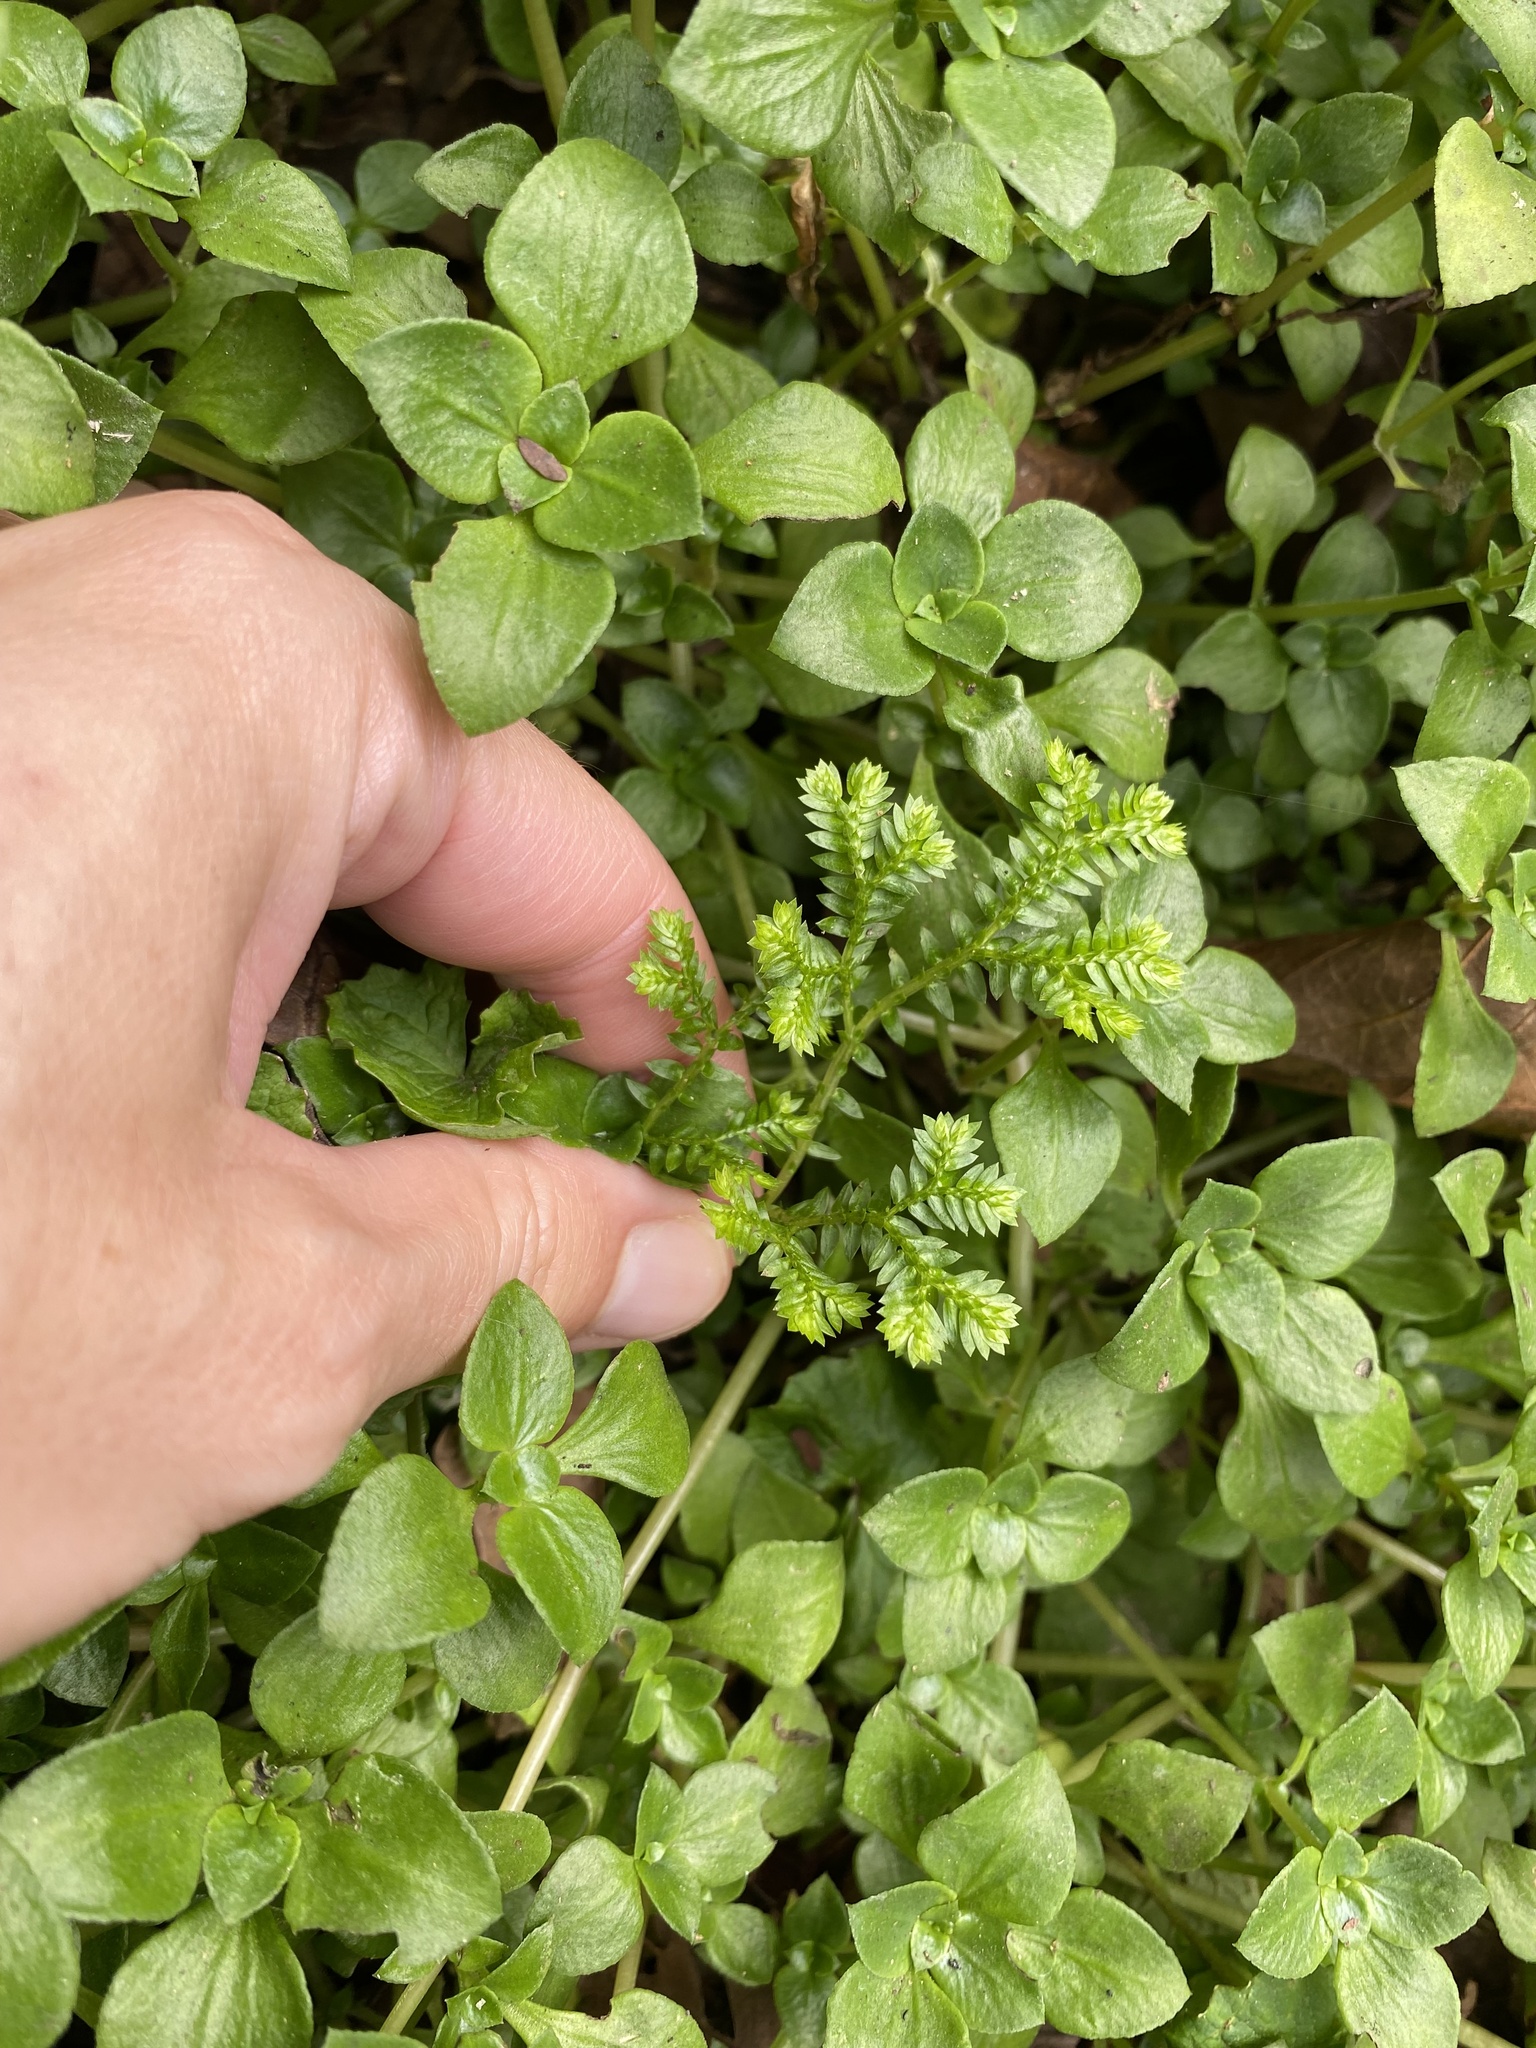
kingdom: Plantae
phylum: Tracheophyta
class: Lycopodiopsida
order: Selaginellales
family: Selaginellaceae
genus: Selaginella
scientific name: Selaginella kraussiana
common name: Krauss' spikemoss
